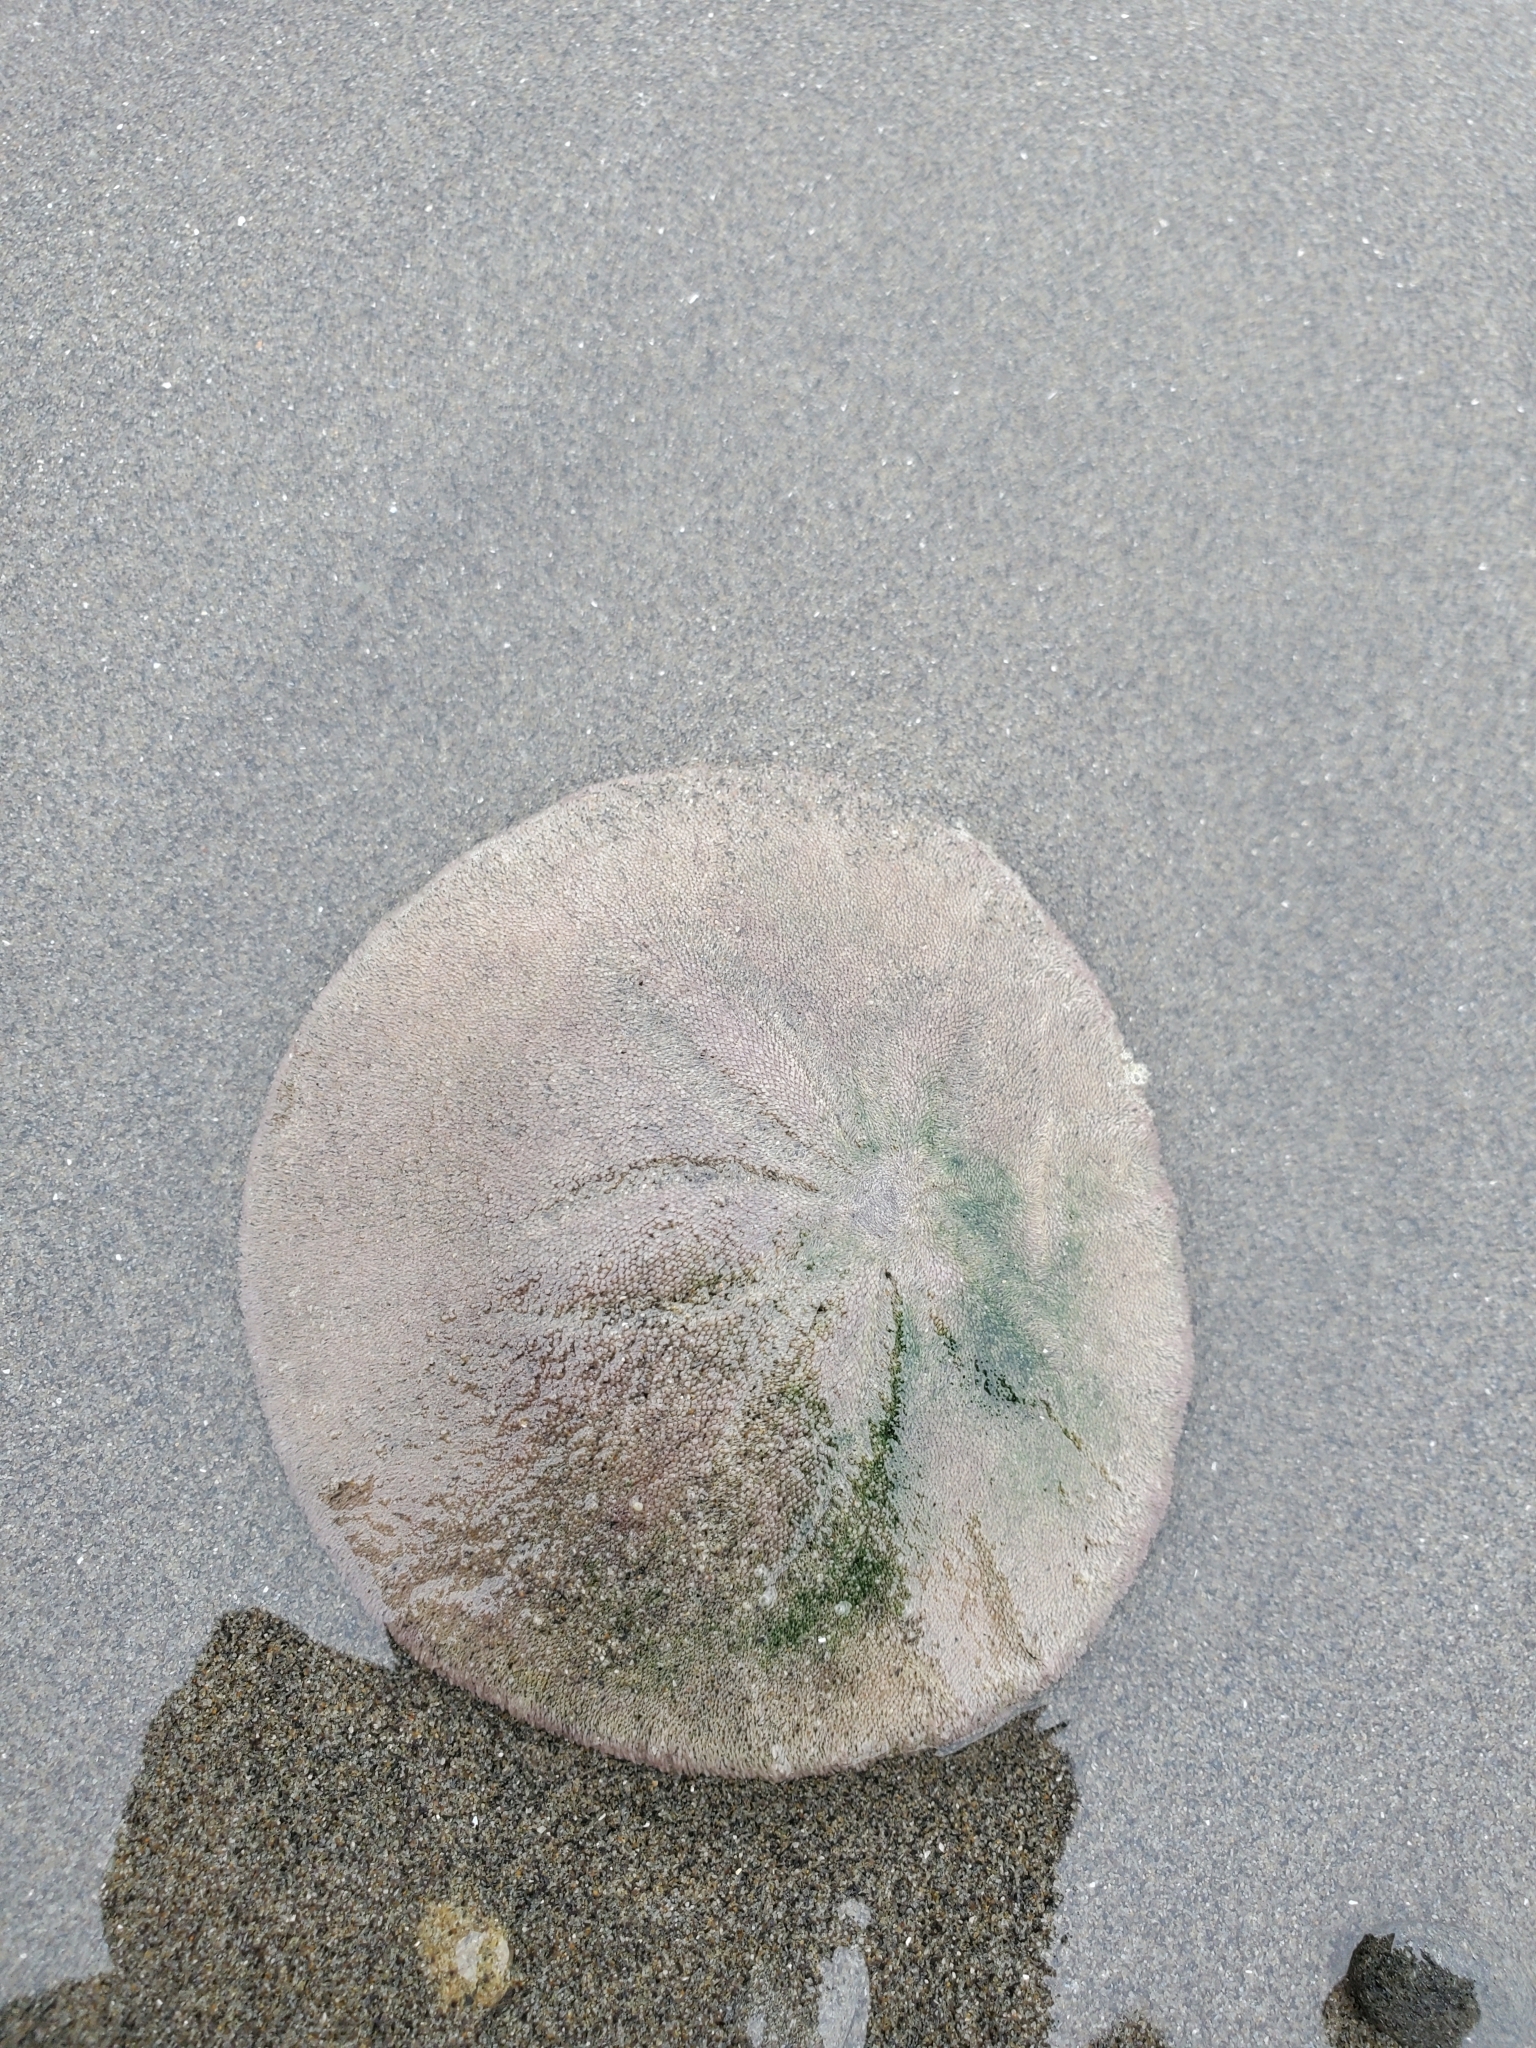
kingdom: Animalia
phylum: Echinodermata
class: Echinoidea
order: Echinolampadacea
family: Dendrasteridae
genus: Dendraster
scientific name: Dendraster excentricus
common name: Eccentric sand dollar sea urchin
